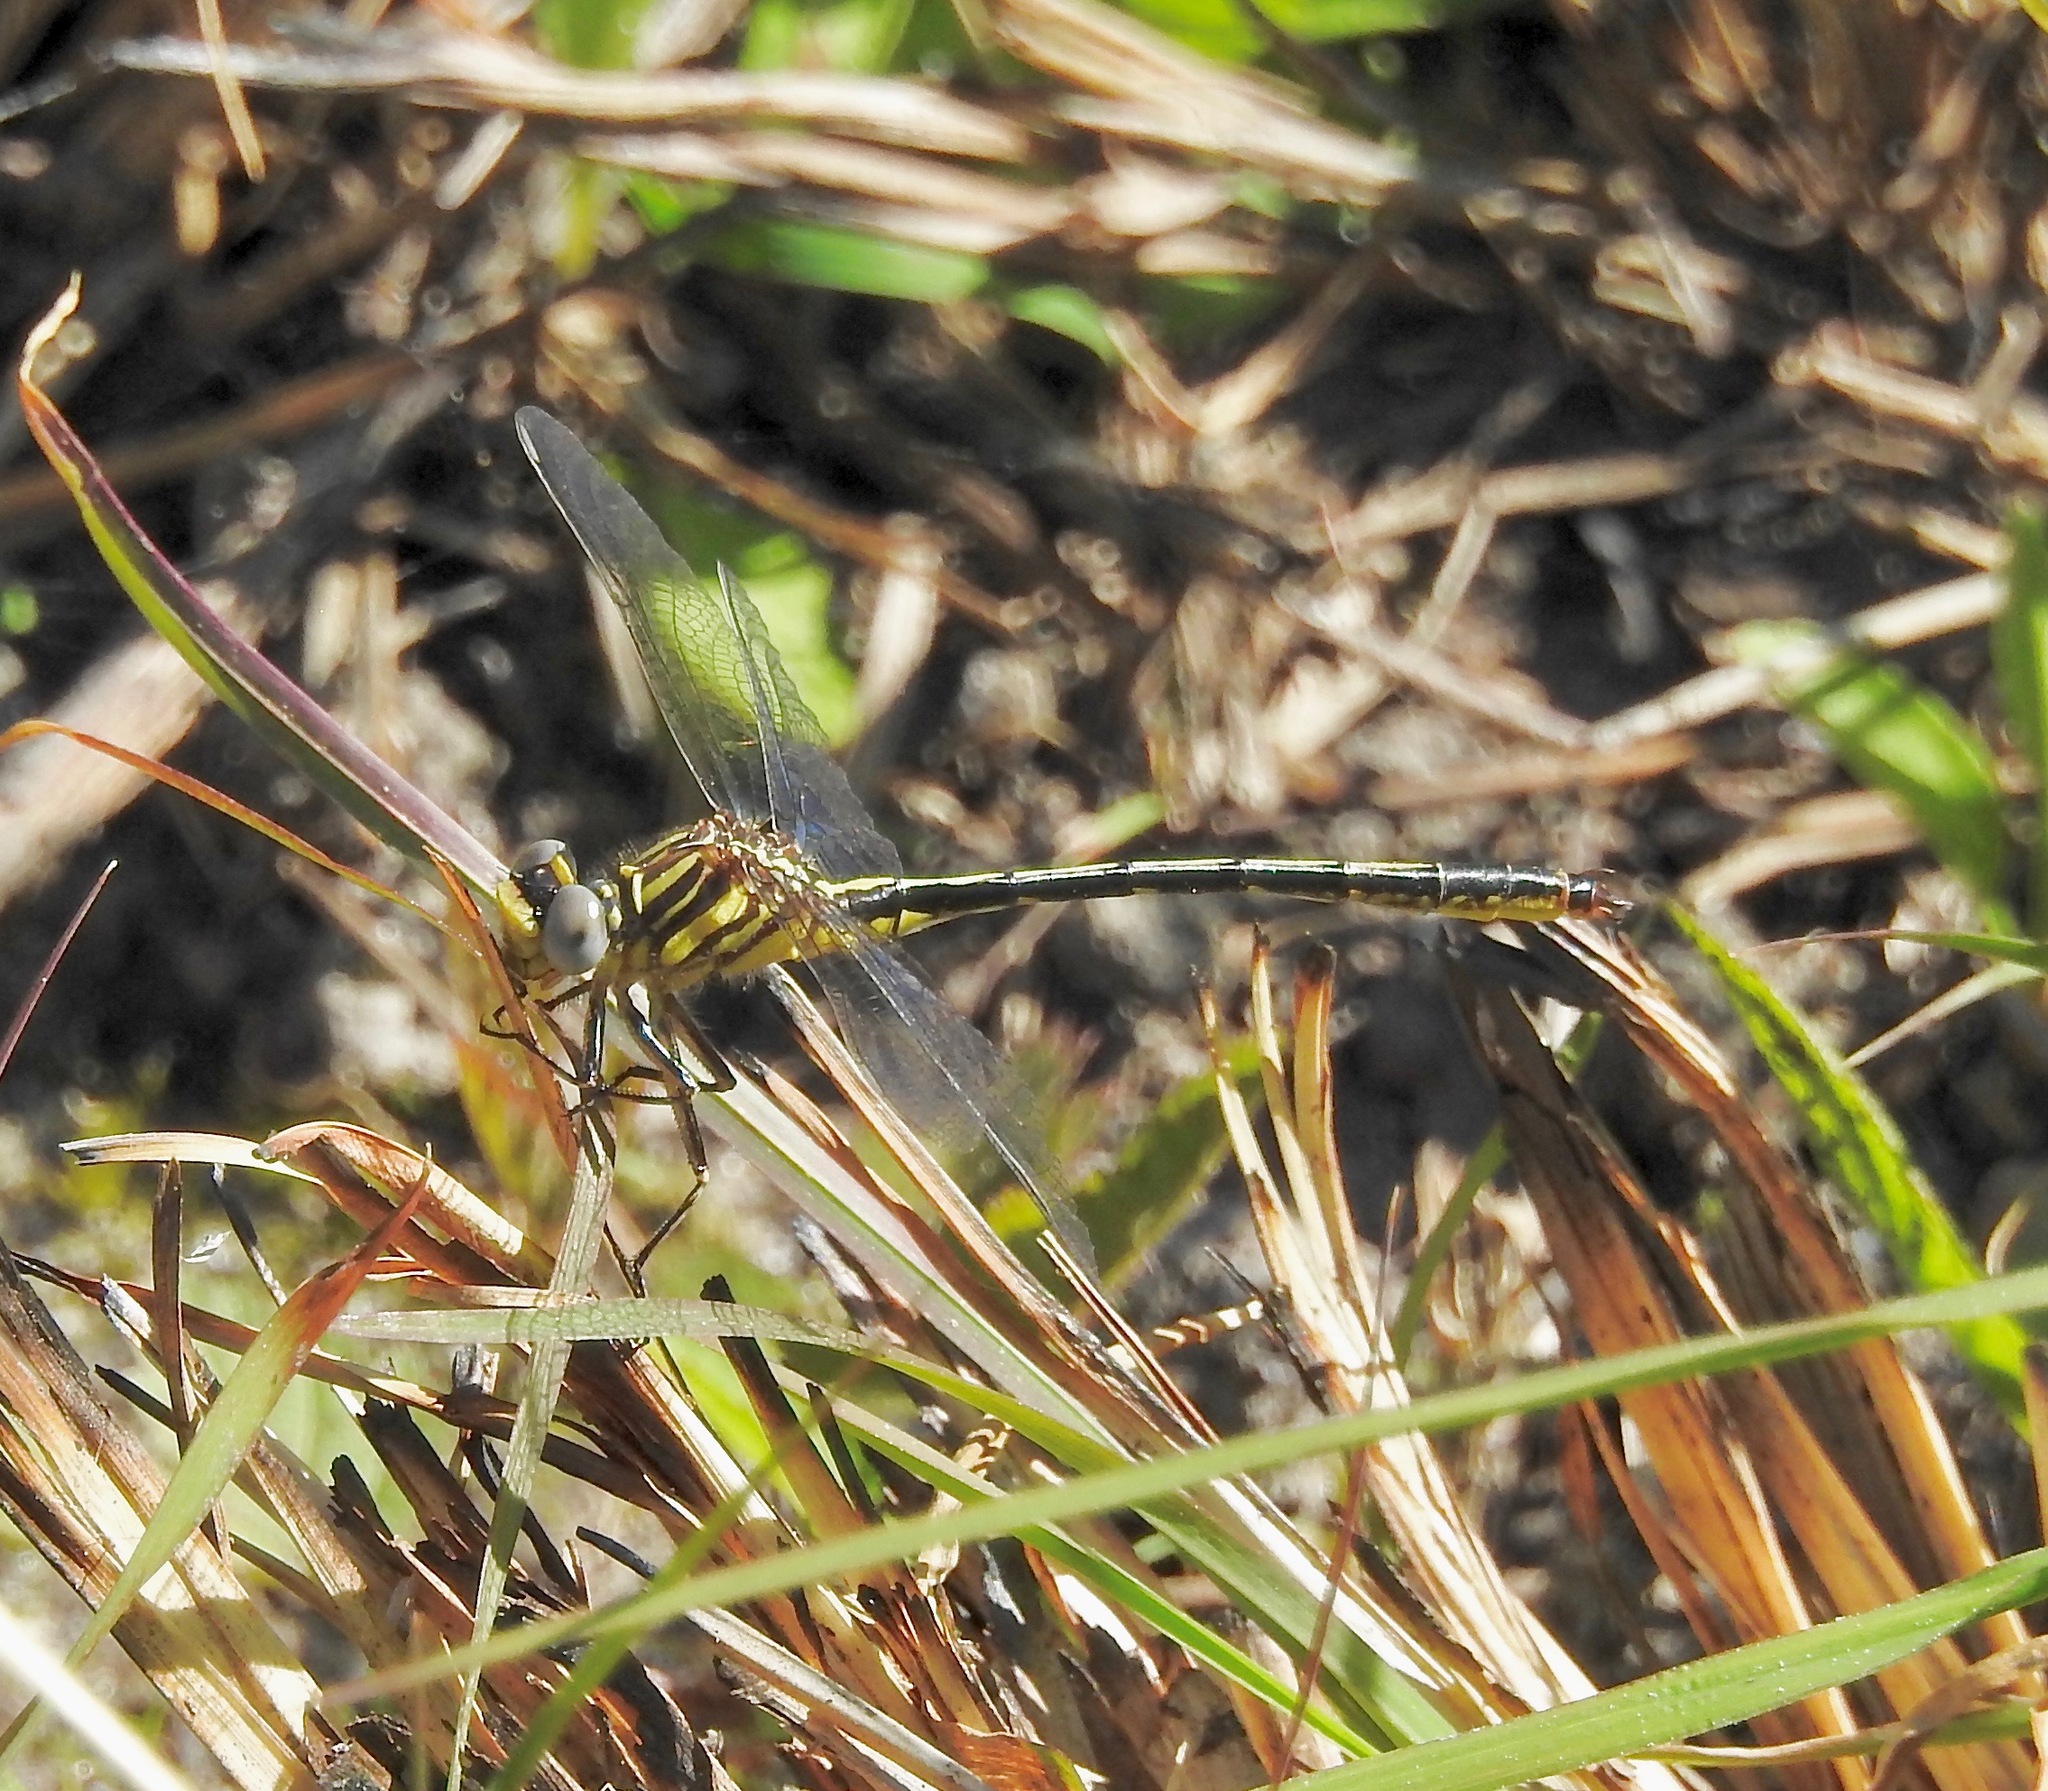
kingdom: Animalia
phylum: Arthropoda
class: Insecta
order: Odonata
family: Gomphidae
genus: Phanogomphus
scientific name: Phanogomphus hodgesi
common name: Hodges' clubtail
